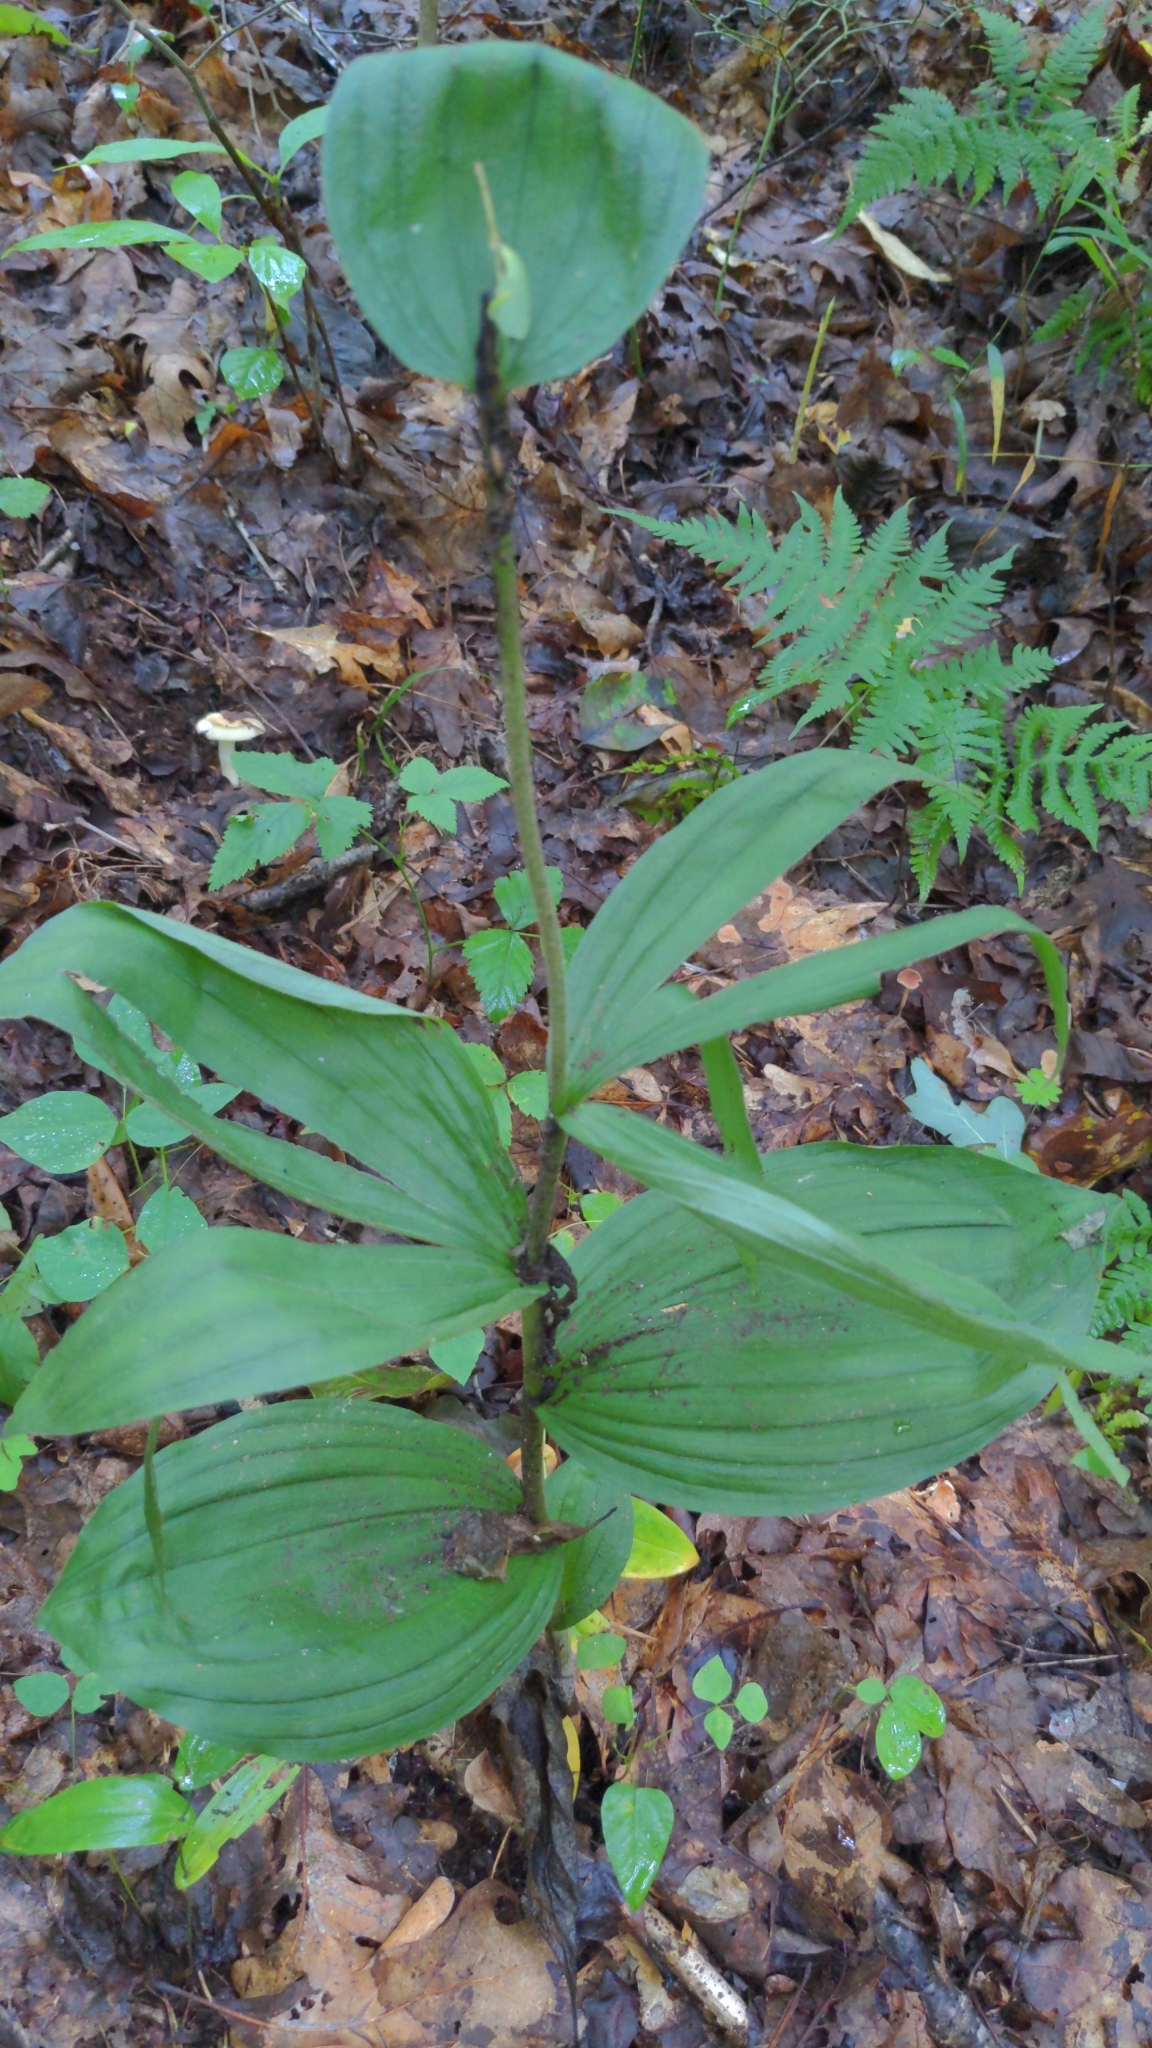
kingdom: Plantae
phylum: Tracheophyta
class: Liliopsida
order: Asparagales
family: Orchidaceae
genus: Cypripedium
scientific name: Cypripedium parviflorum
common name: American yellow lady's-slipper
